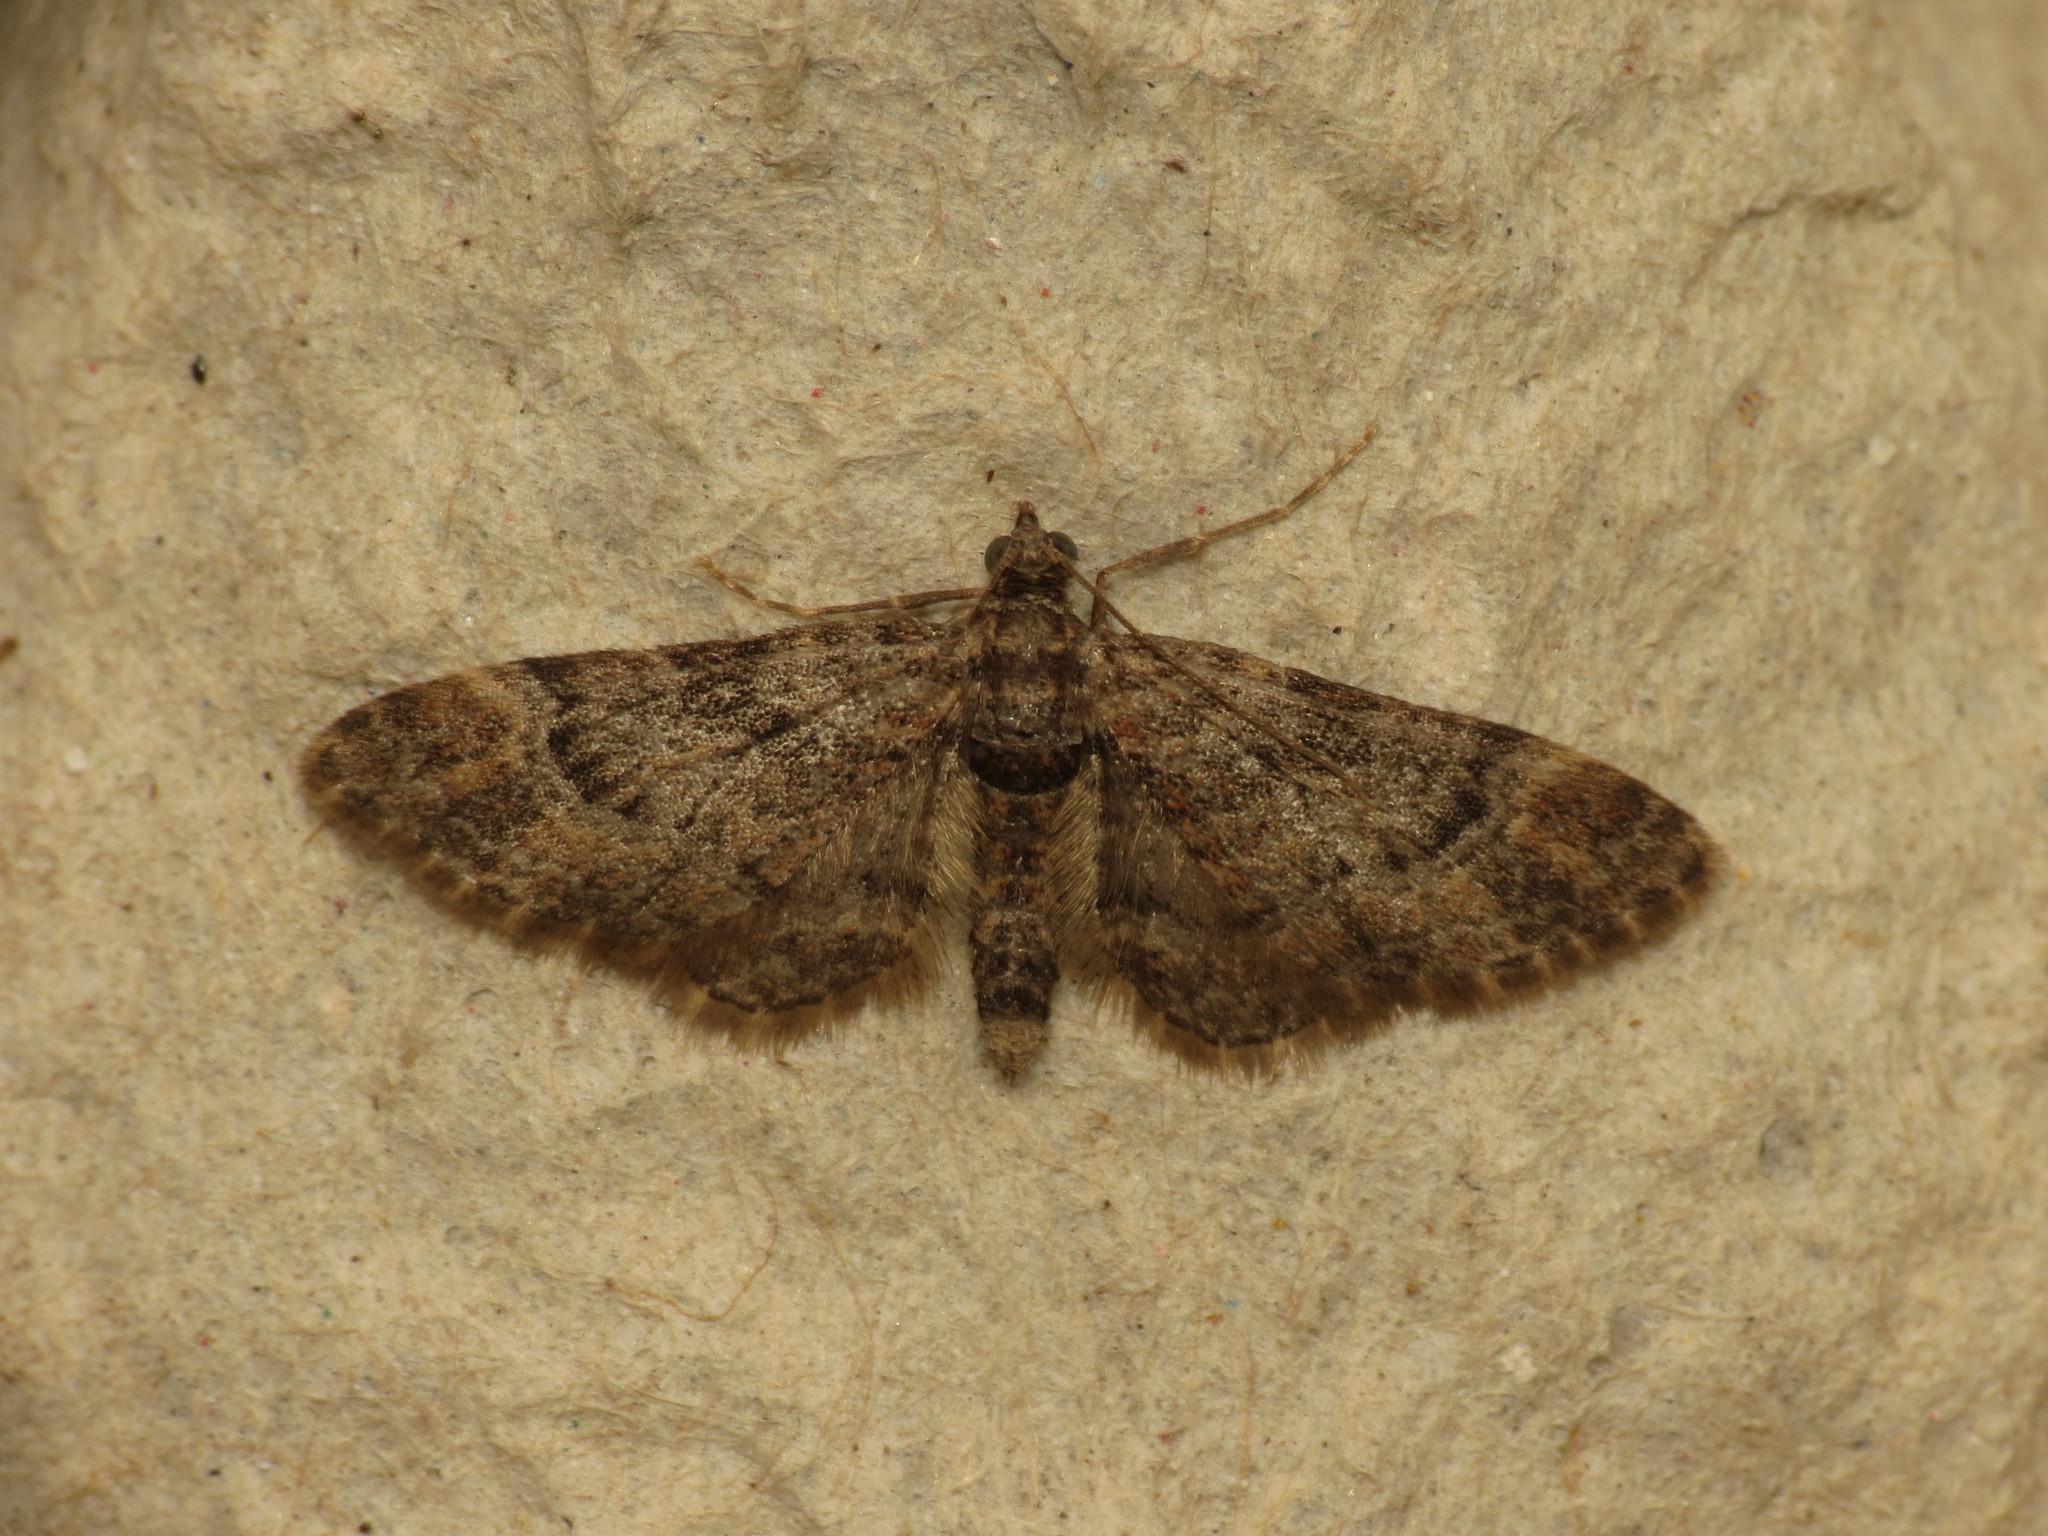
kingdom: Animalia
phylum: Arthropoda
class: Insecta
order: Lepidoptera
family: Geometridae
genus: Gymnoscelis
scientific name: Gymnoscelis rufifasciata
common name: Double-striped pug
